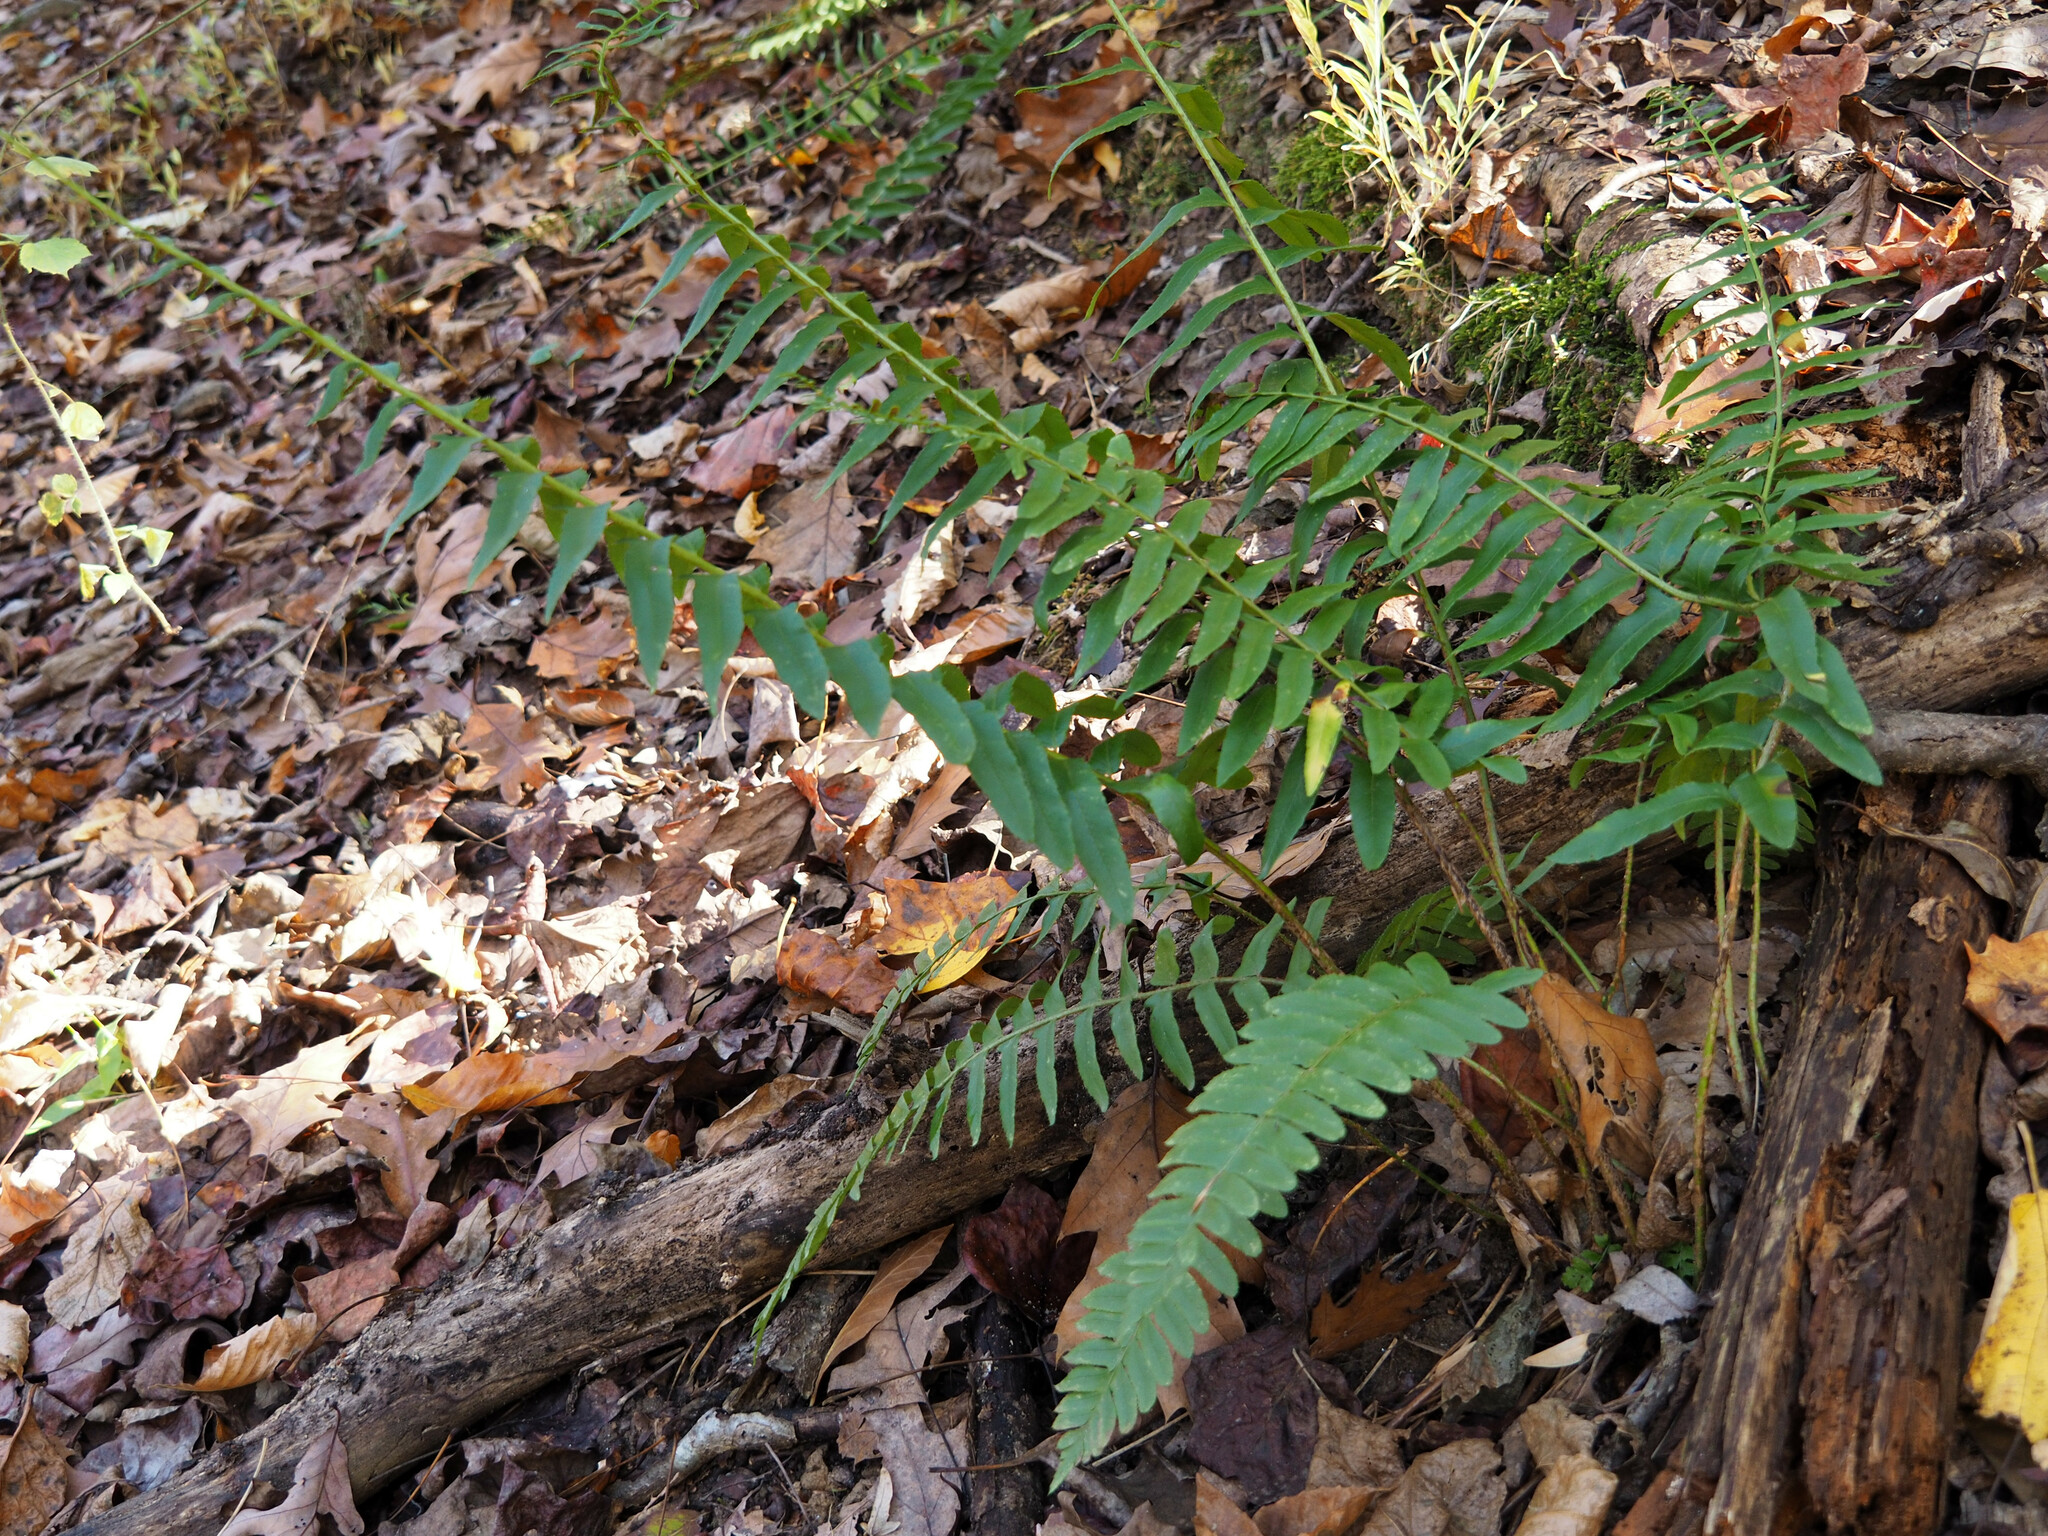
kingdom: Plantae
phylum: Tracheophyta
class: Polypodiopsida
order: Polypodiales
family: Dryopteridaceae
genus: Polystichum
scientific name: Polystichum acrostichoides
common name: Christmas fern
